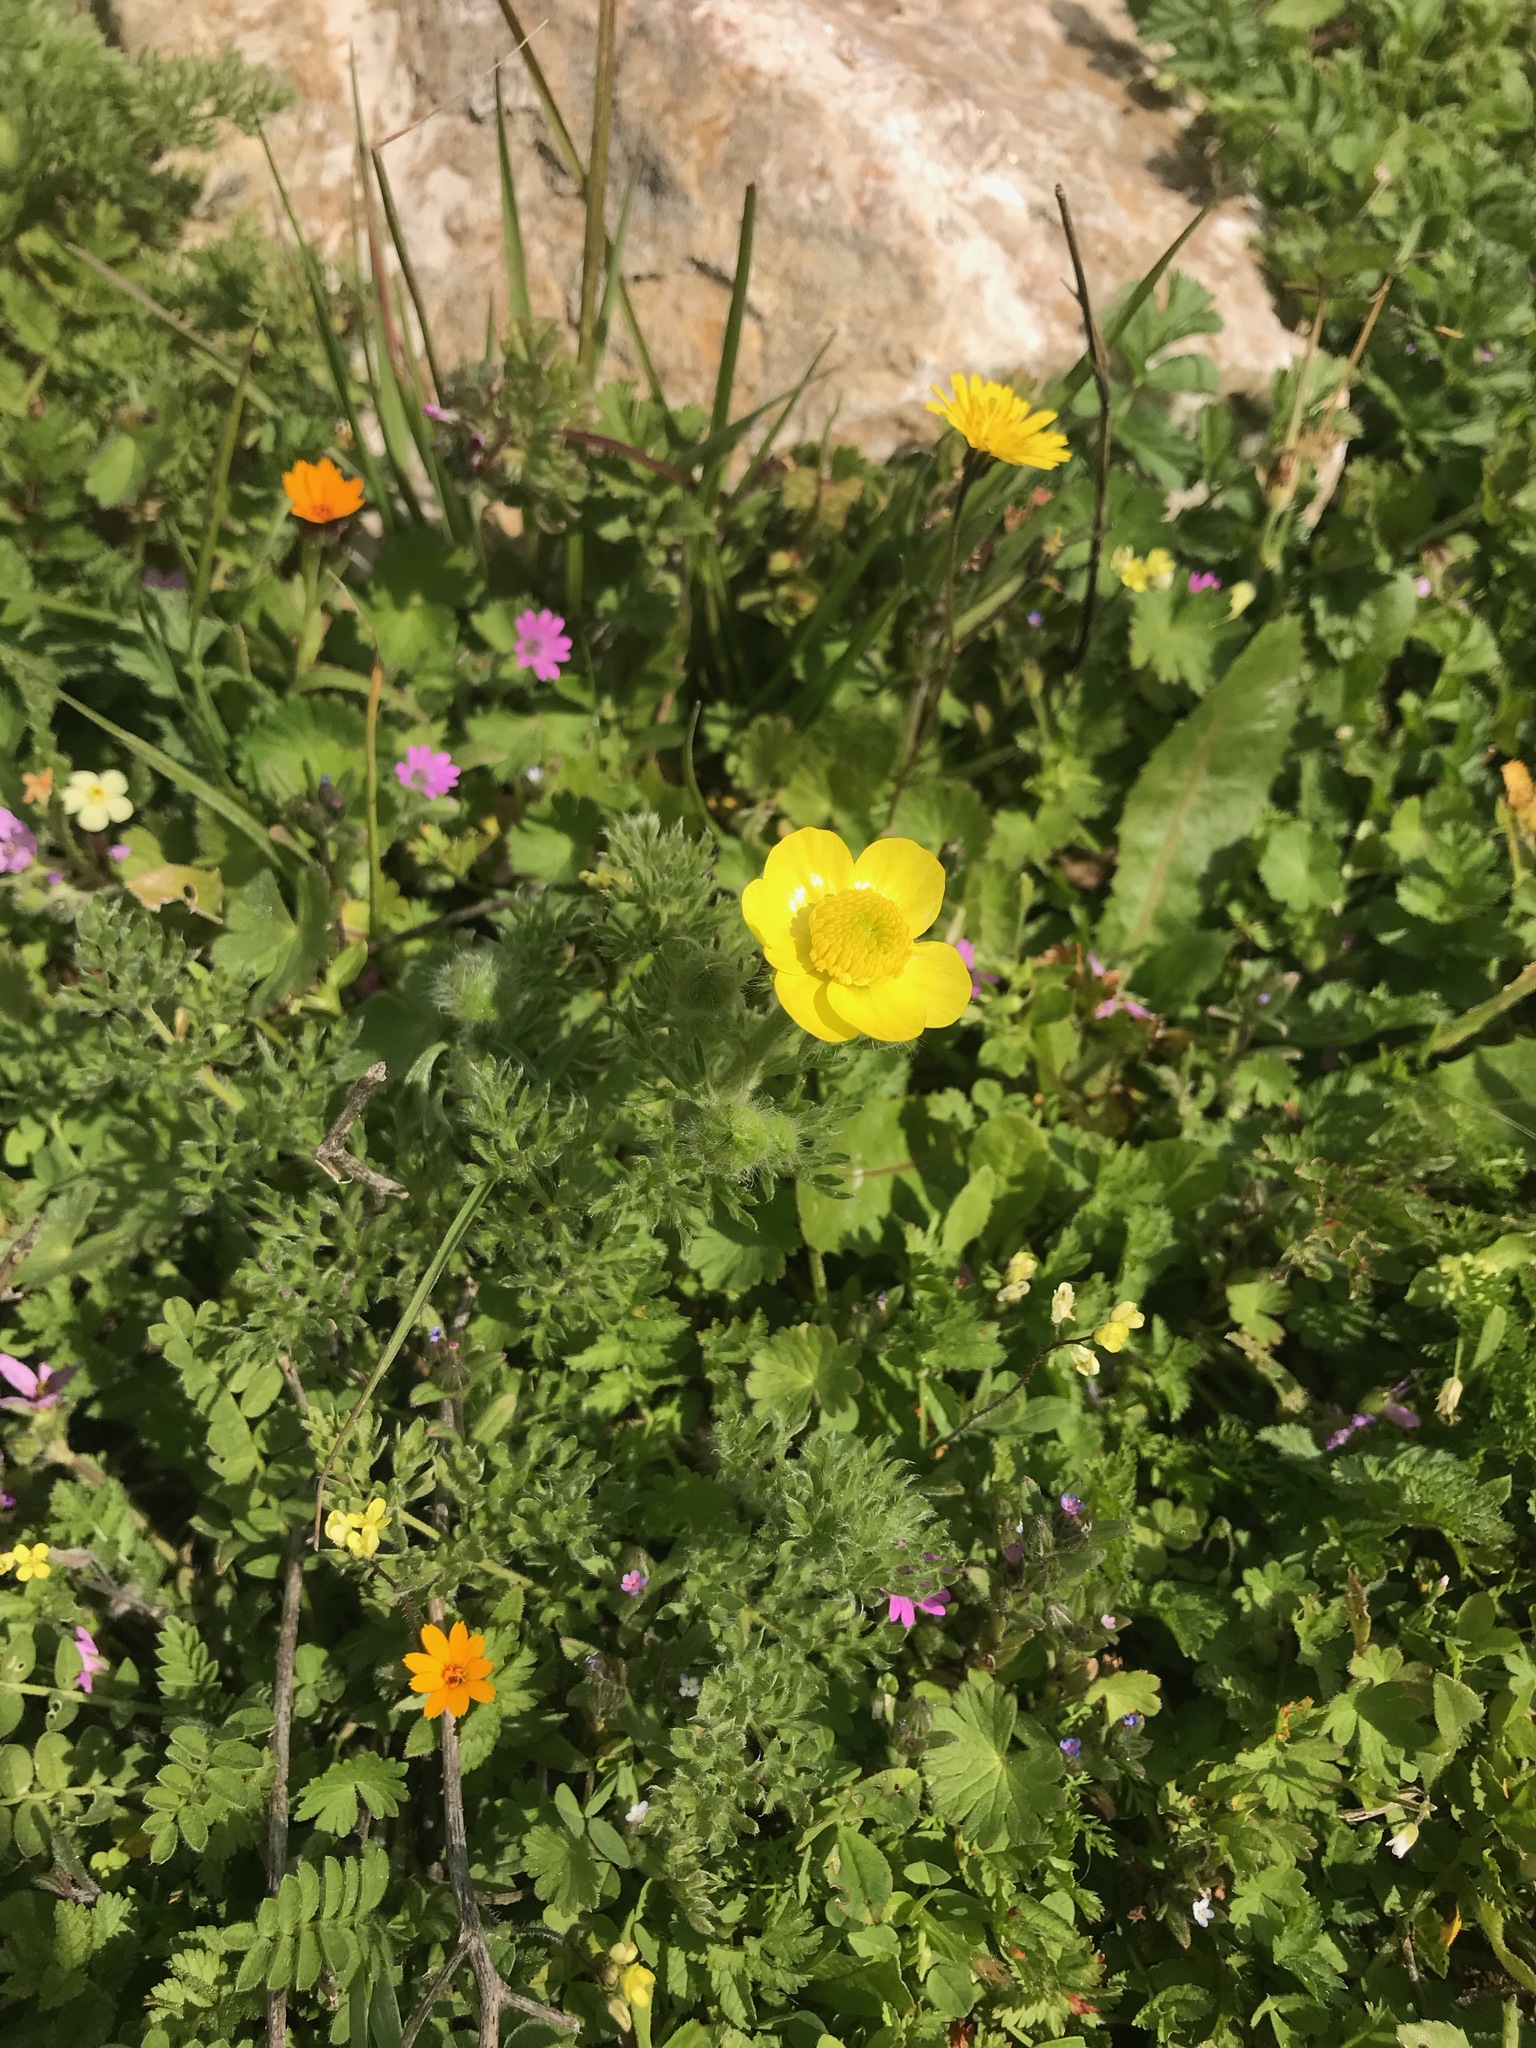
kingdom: Plantae
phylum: Tracheophyta
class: Magnoliopsida
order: Ranunculales
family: Ranunculaceae
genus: Ranunculus
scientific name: Ranunculus millefolius
